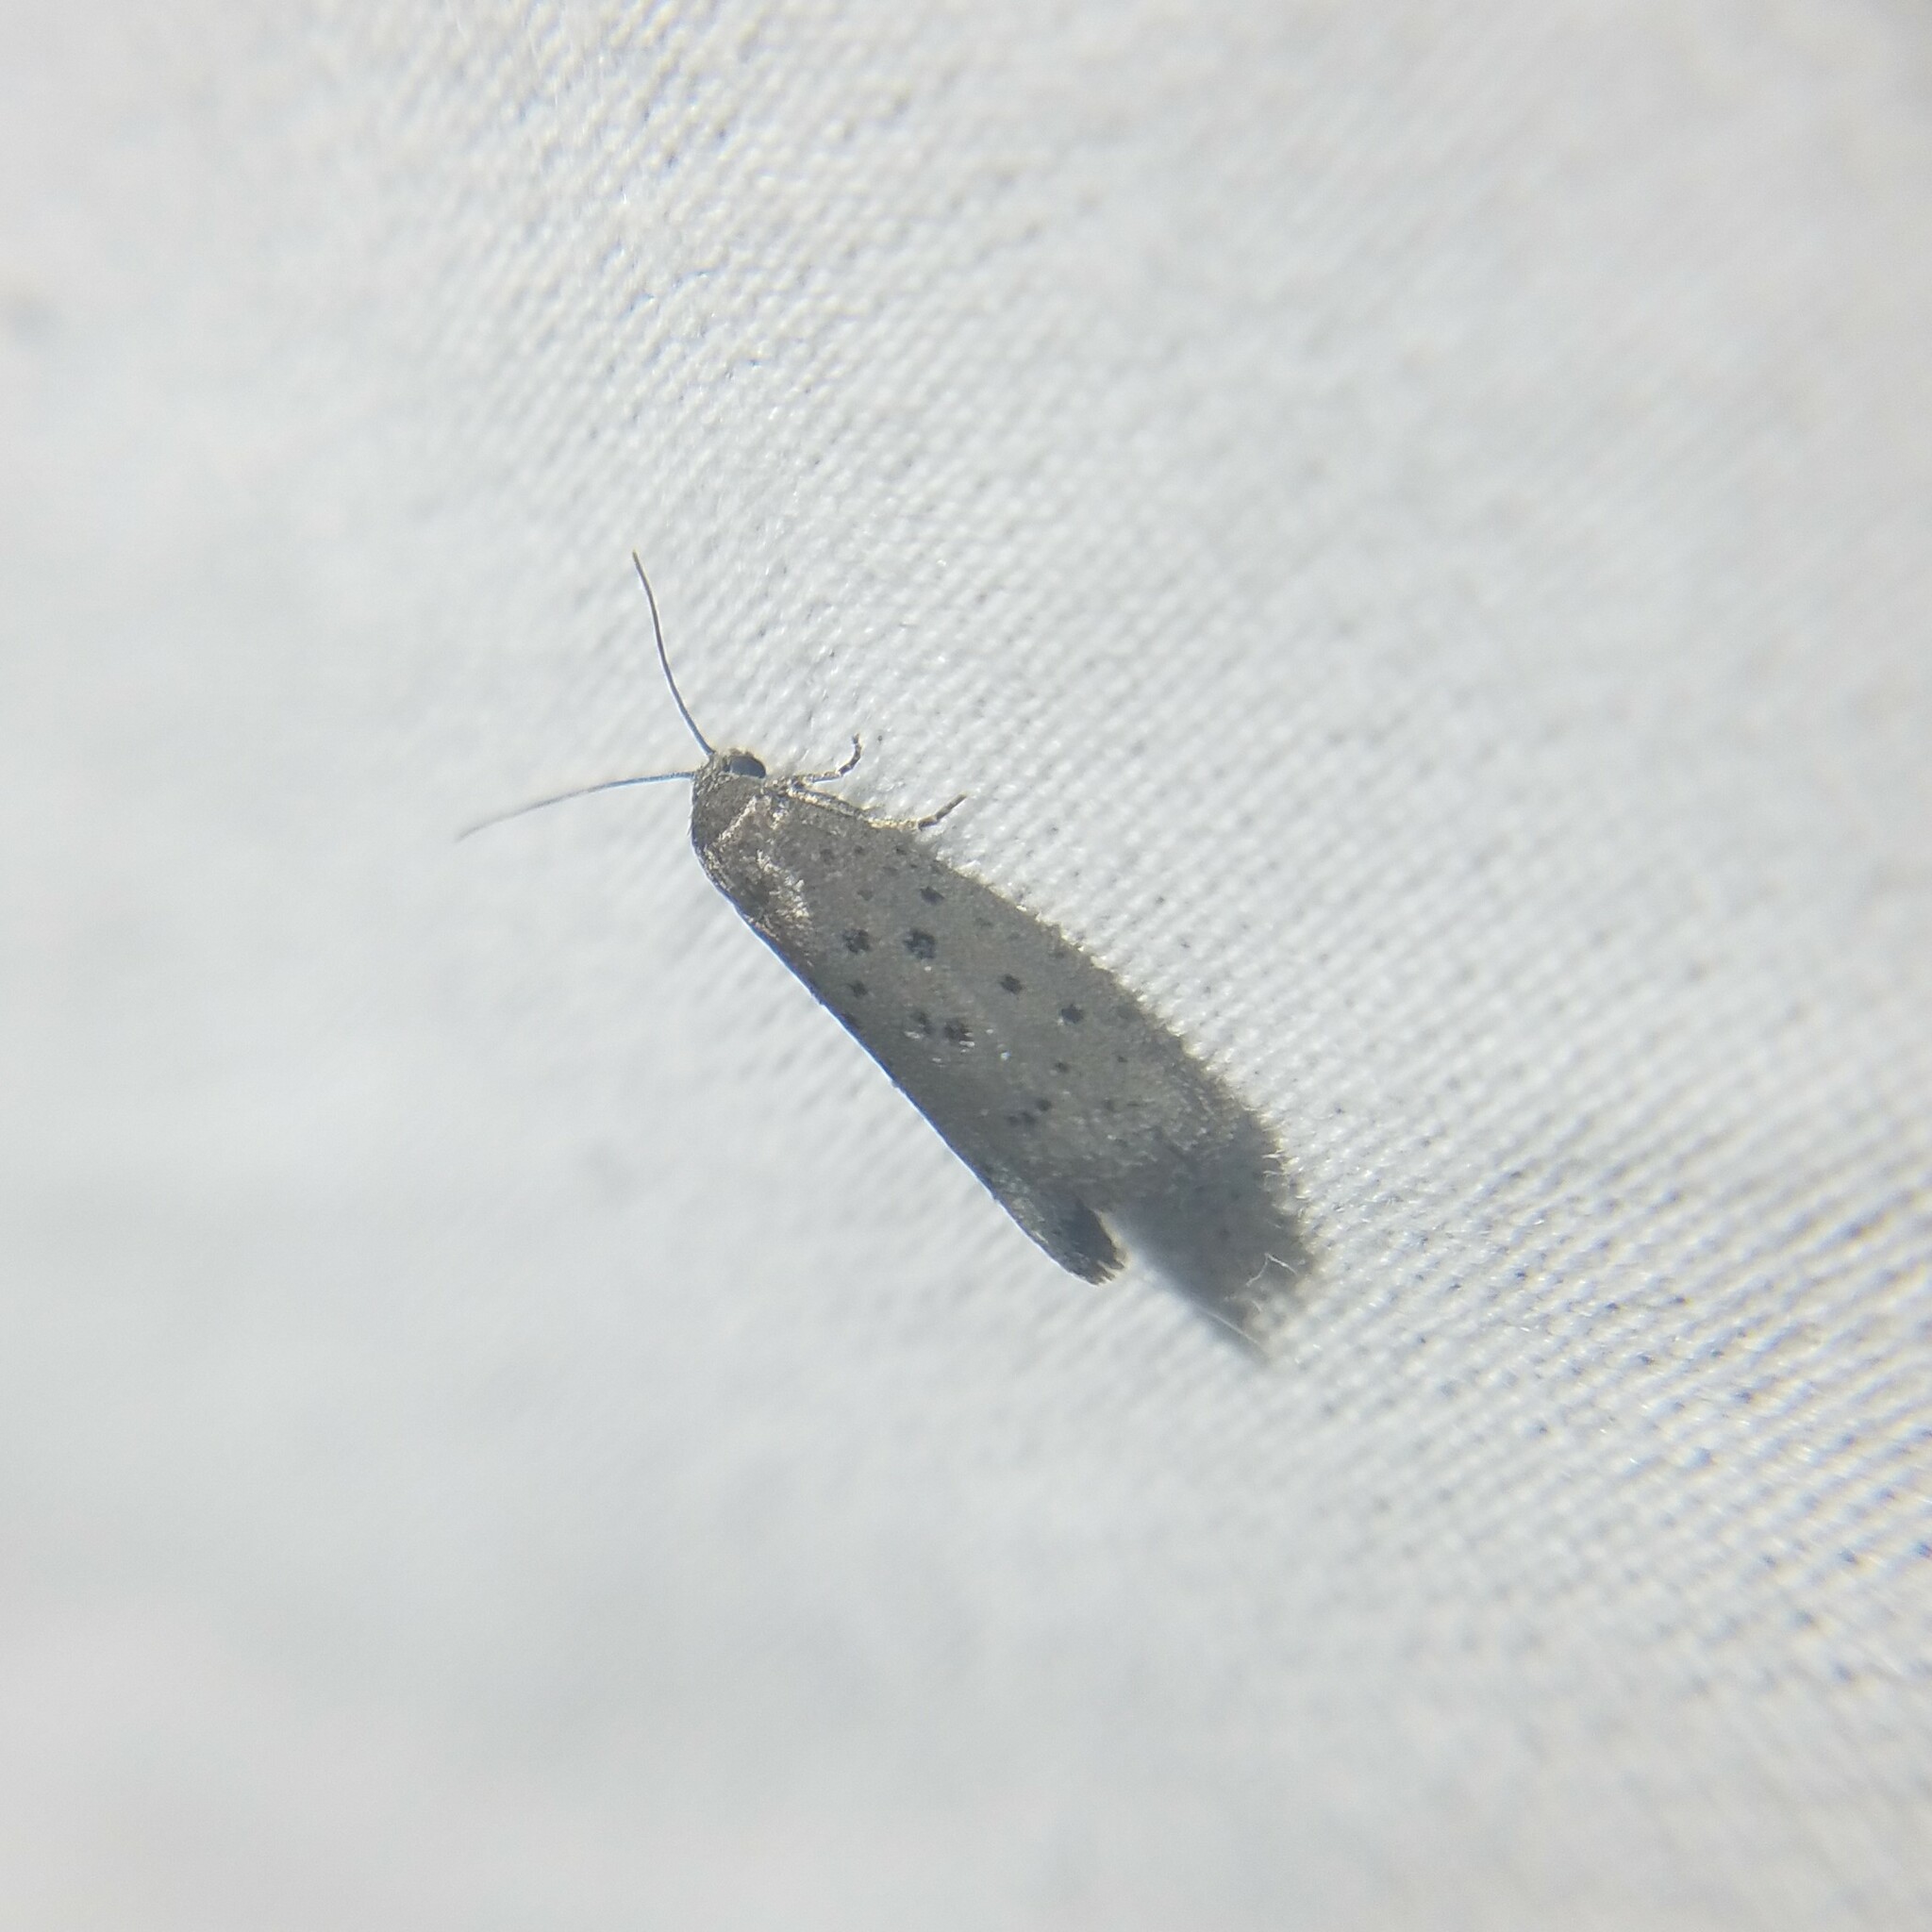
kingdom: Animalia
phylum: Arthropoda
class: Insecta
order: Lepidoptera
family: Galacticidae
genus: Homadaula
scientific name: Homadaula anisocentra
